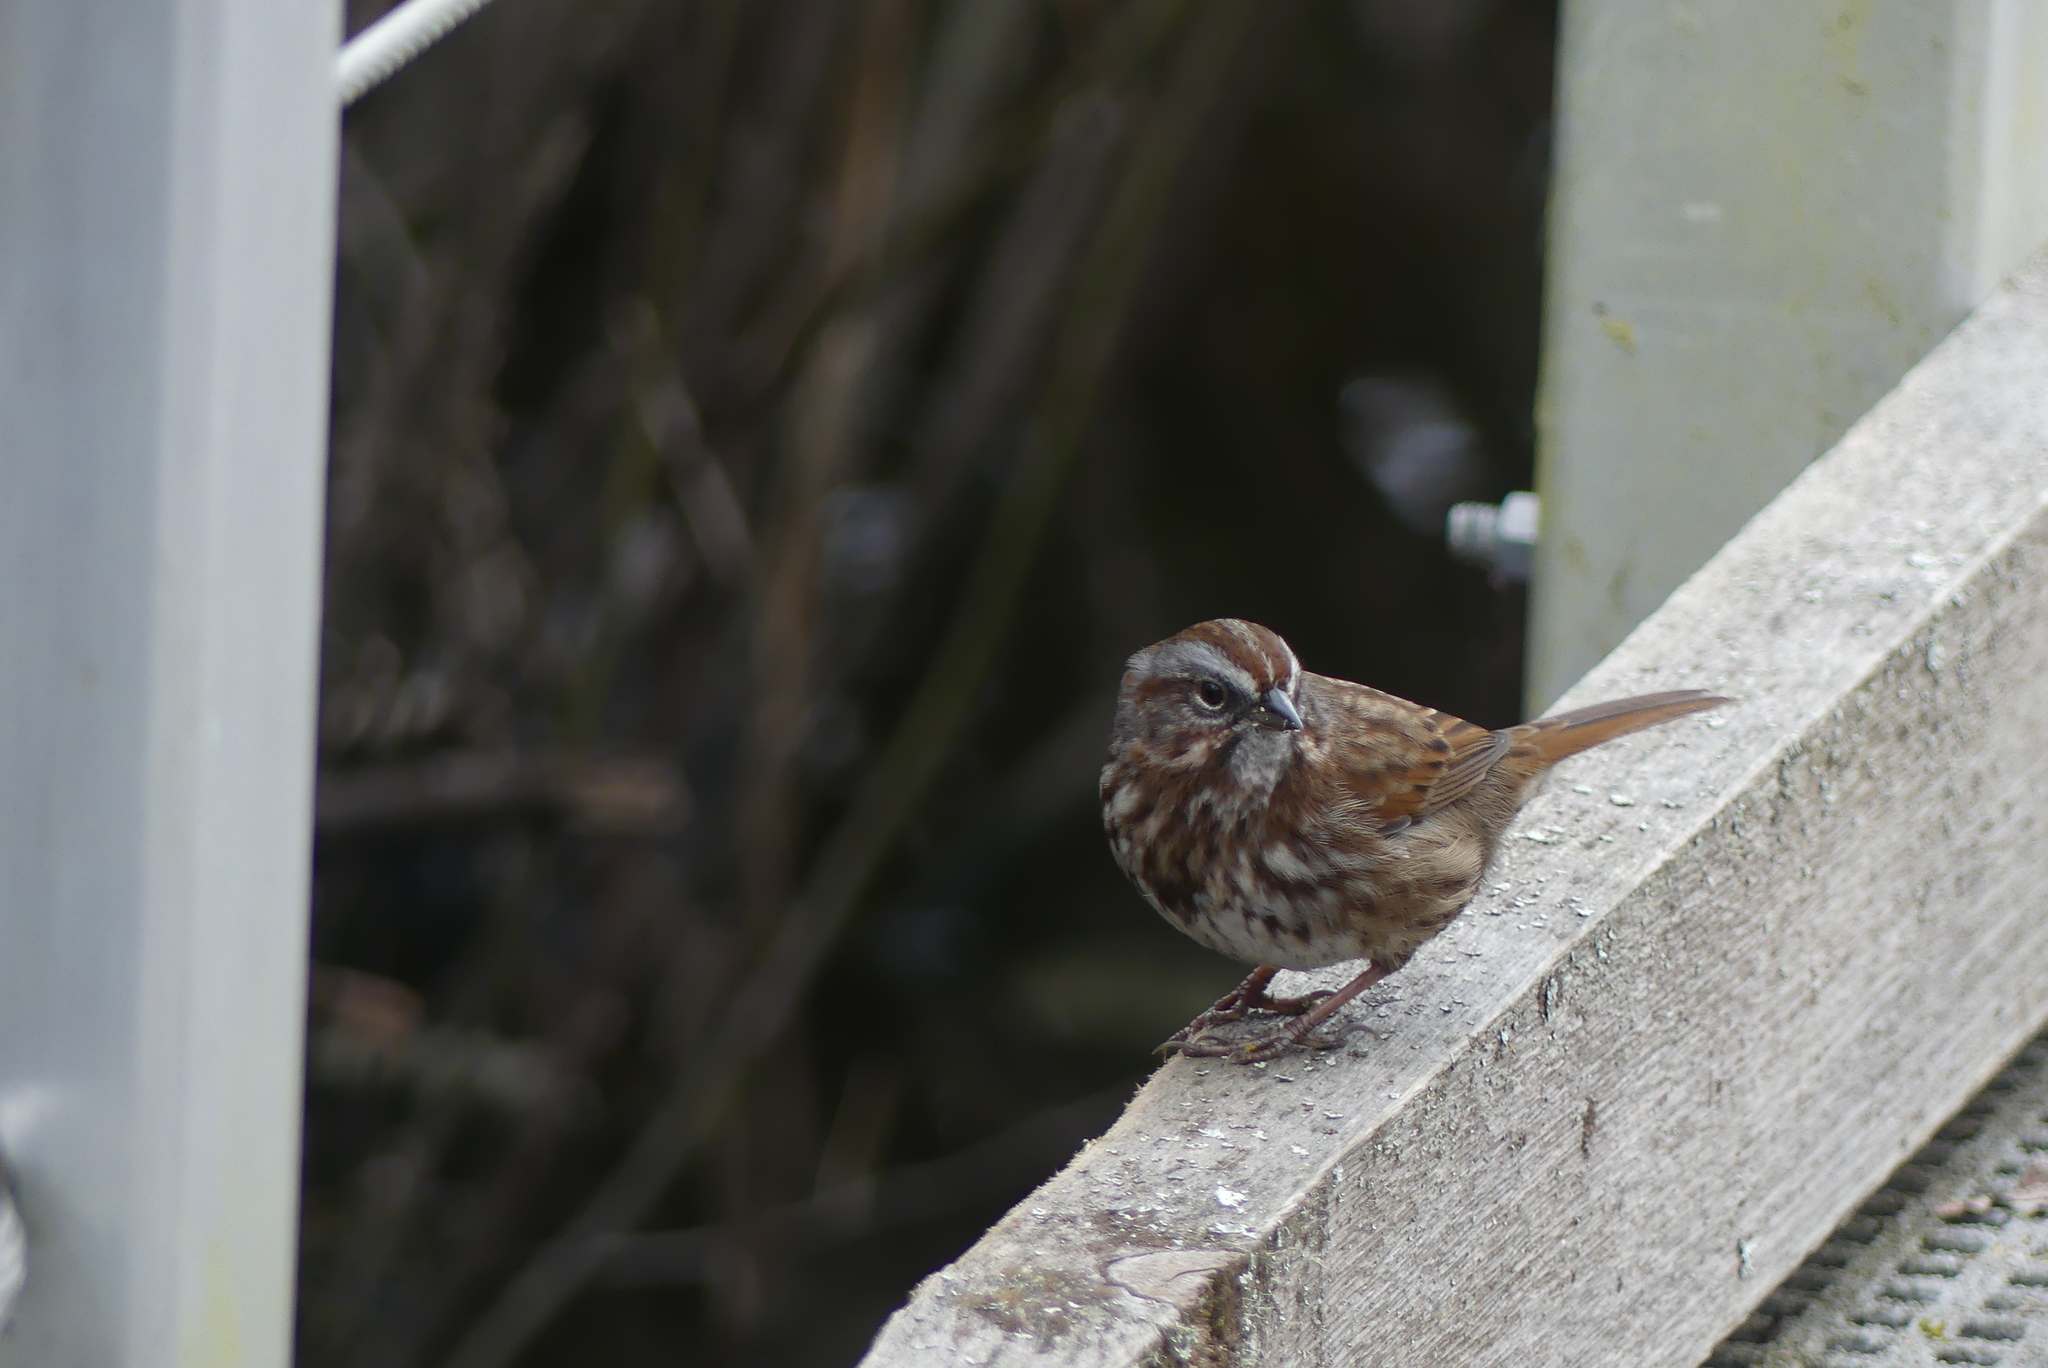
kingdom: Animalia
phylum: Chordata
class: Aves
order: Passeriformes
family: Passerellidae
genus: Melospiza
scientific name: Melospiza melodia
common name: Song sparrow
